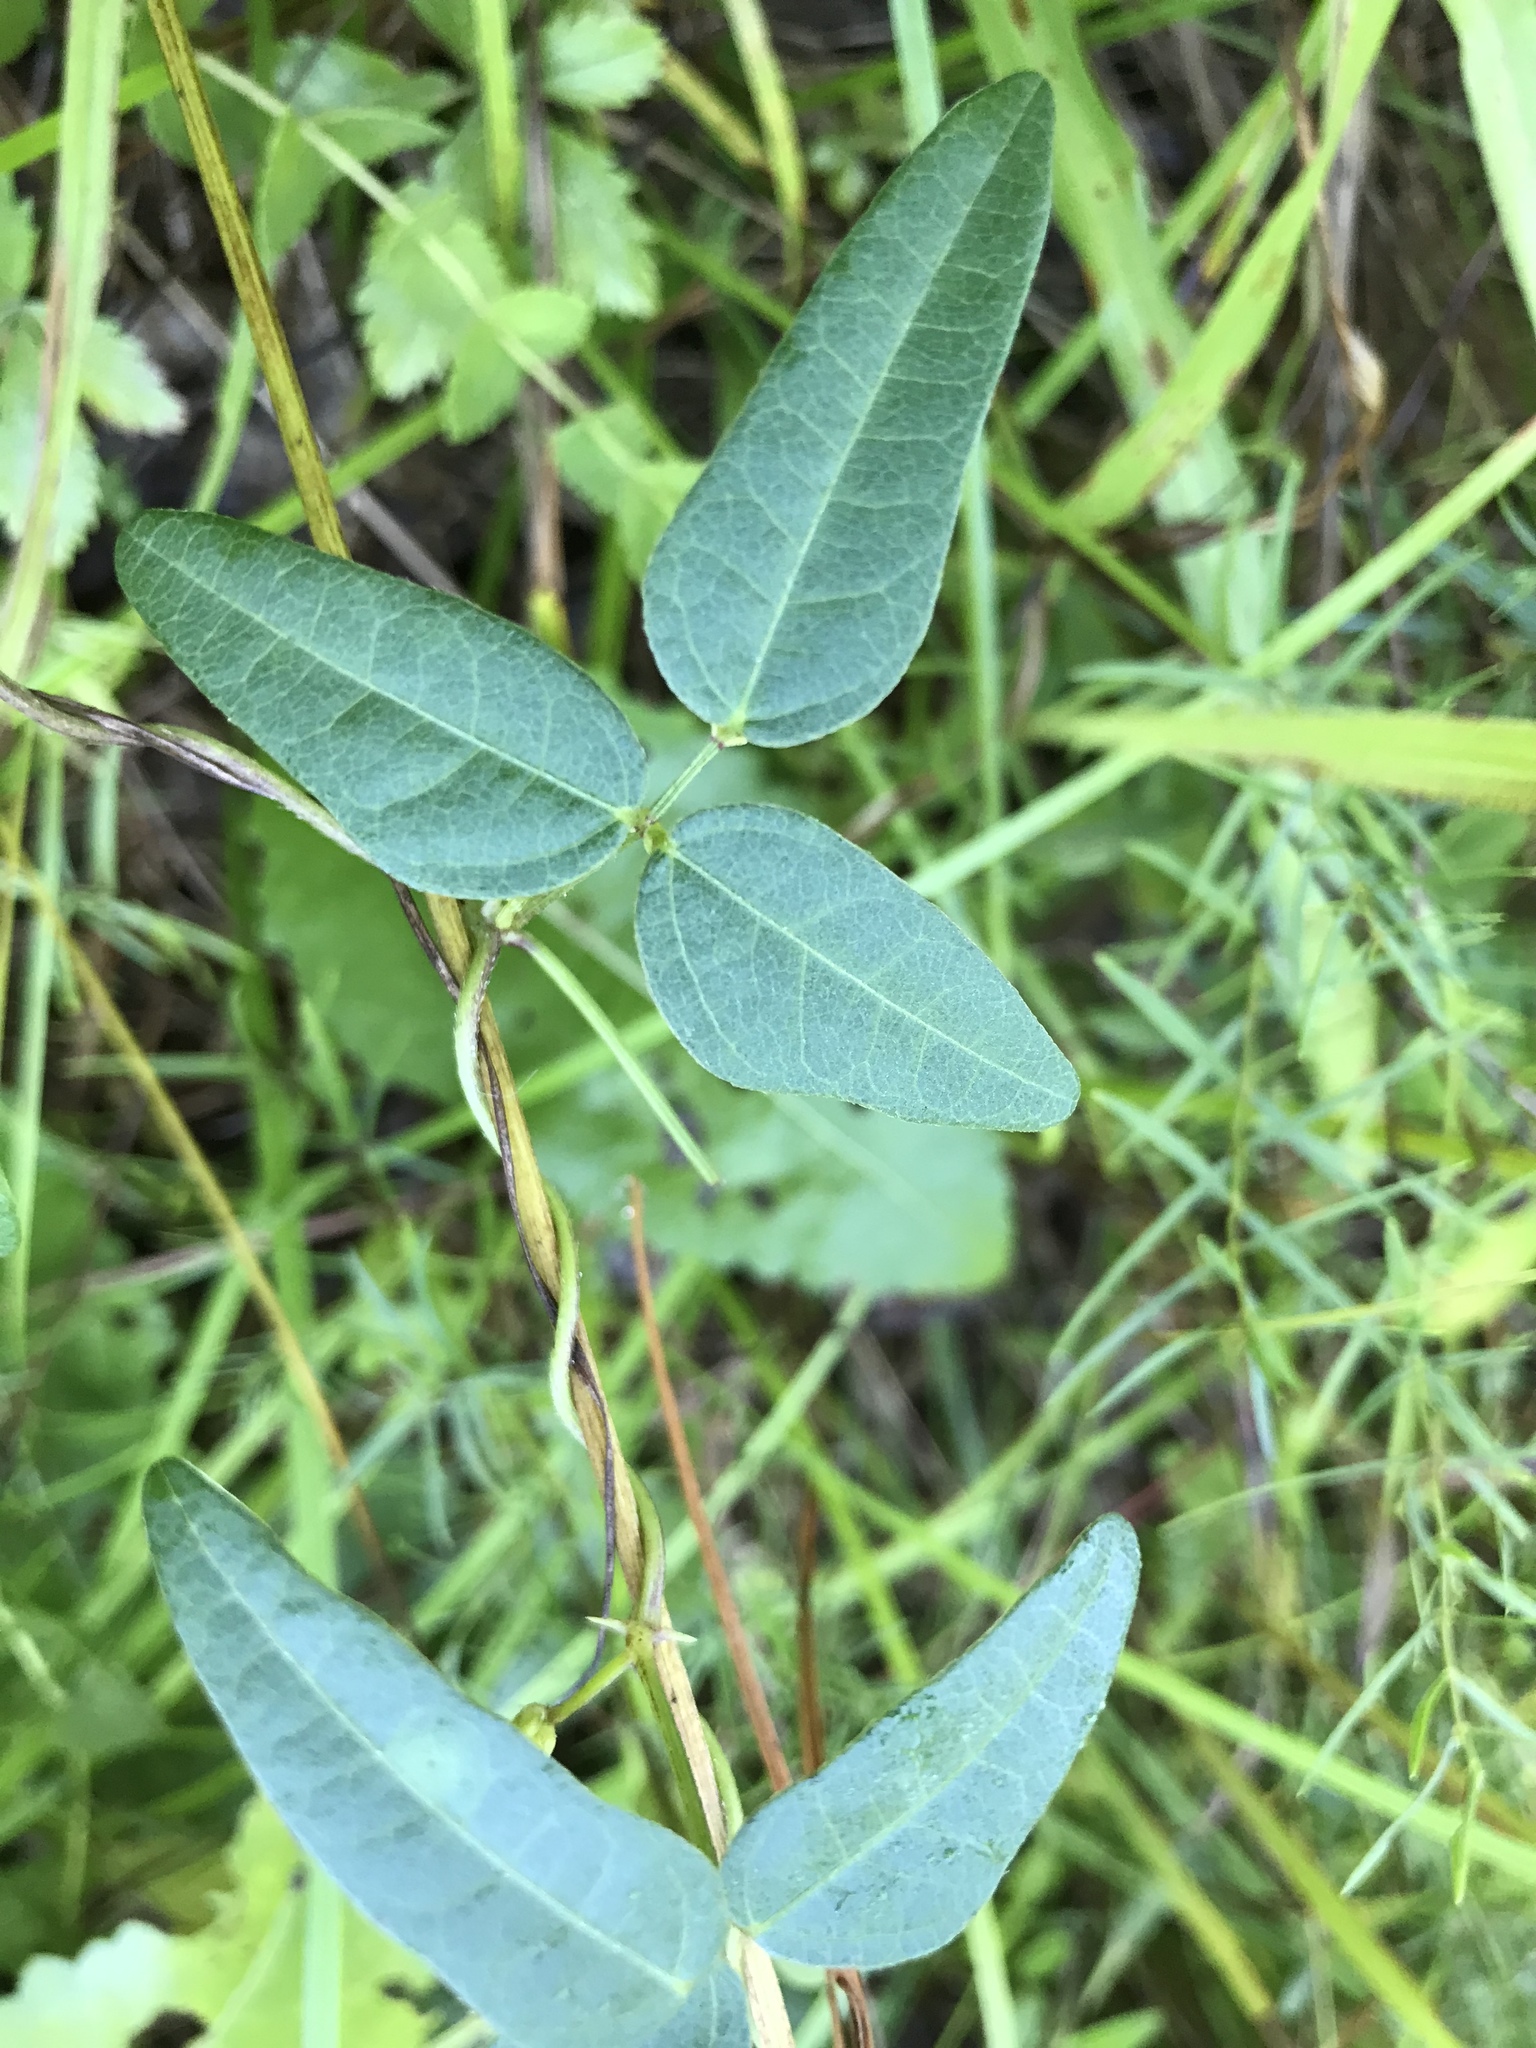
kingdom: Plantae
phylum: Tracheophyta
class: Magnoliopsida
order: Fabales
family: Fabaceae
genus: Strophostyles
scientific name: Strophostyles umbellata
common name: Perennial wild bean
